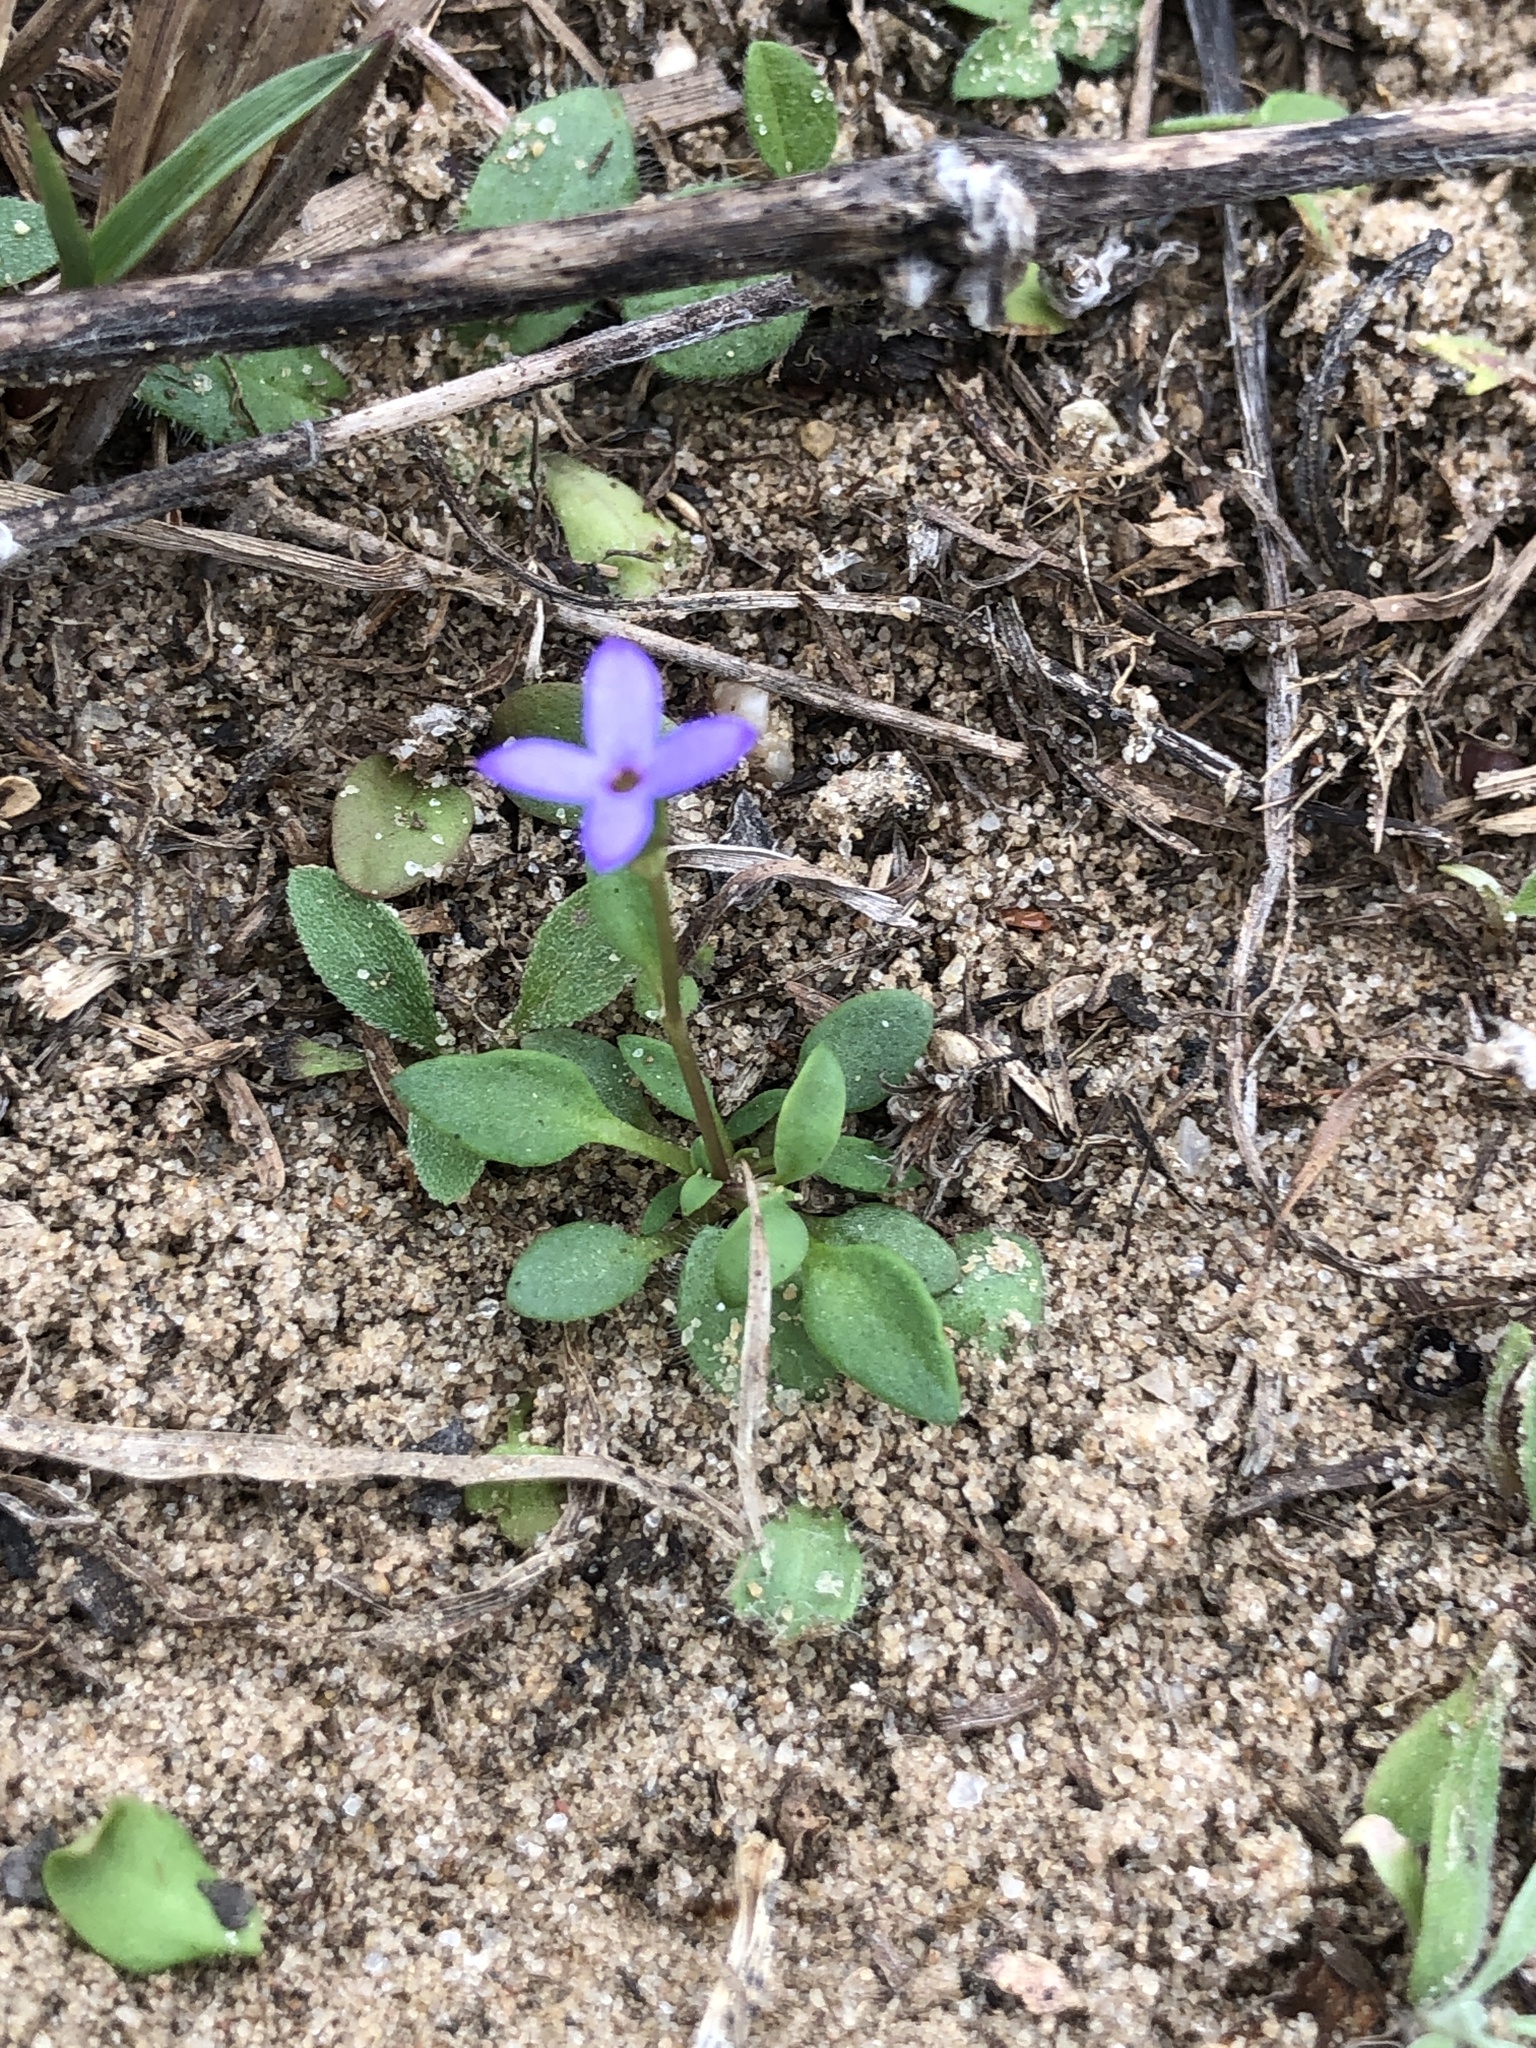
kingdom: Plantae
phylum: Tracheophyta
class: Magnoliopsida
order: Gentianales
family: Rubiaceae
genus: Houstonia
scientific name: Houstonia pusilla
